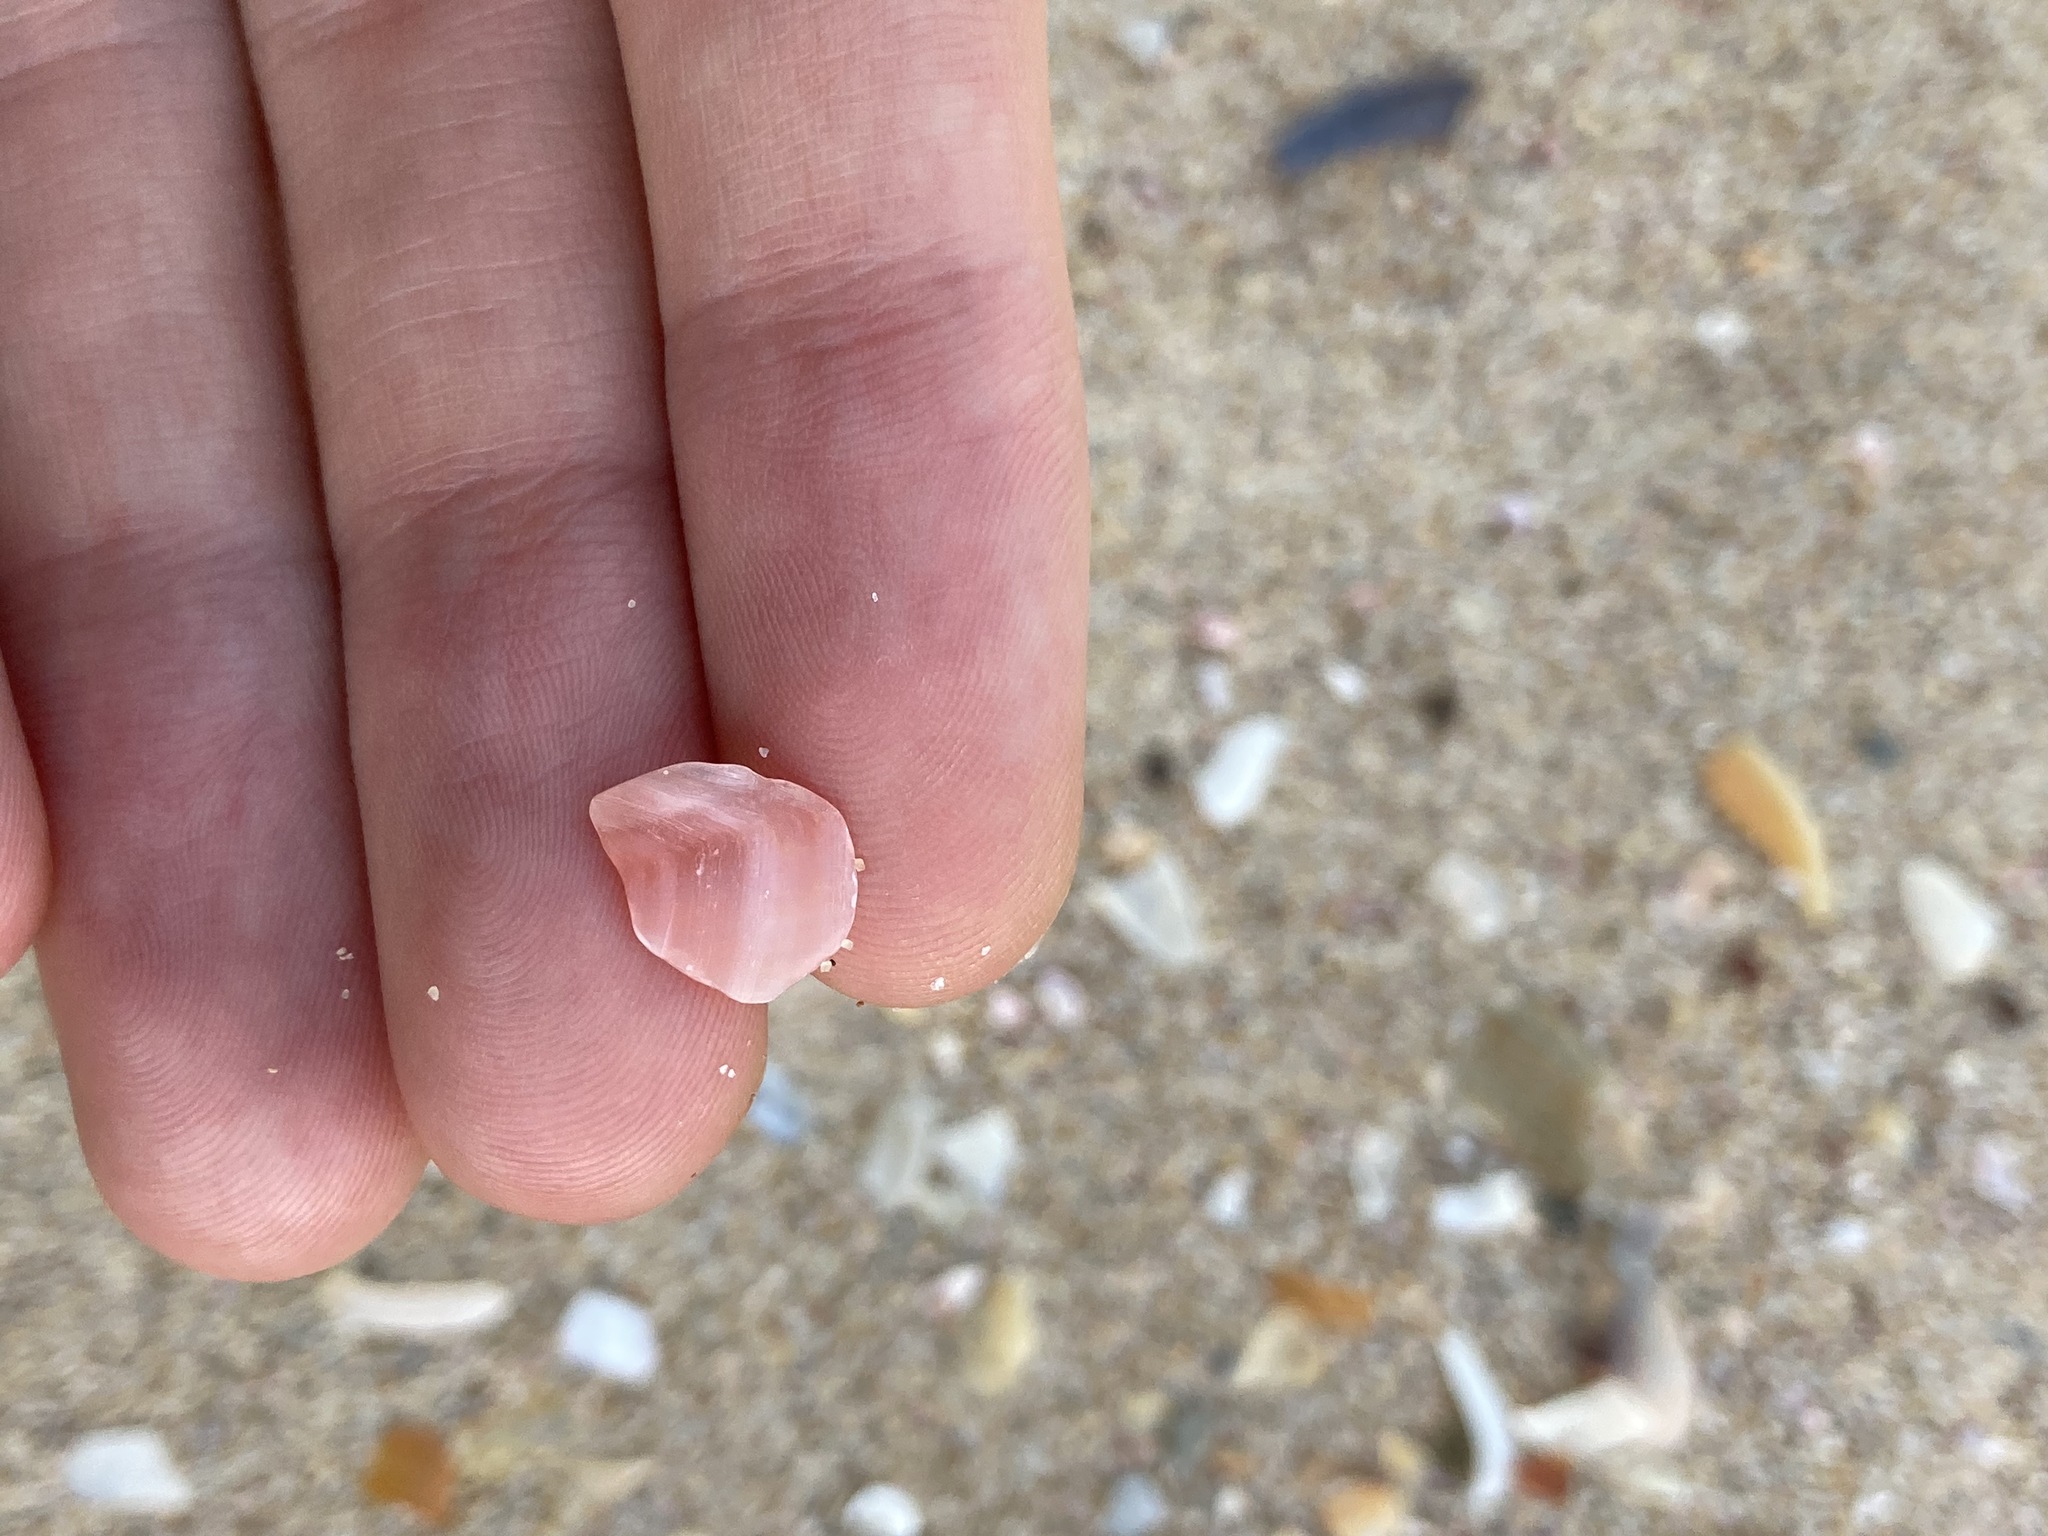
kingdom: Animalia
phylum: Mollusca
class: Bivalvia
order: Cardiida
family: Tellinidae
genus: Tellinota
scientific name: Tellinota albinella
